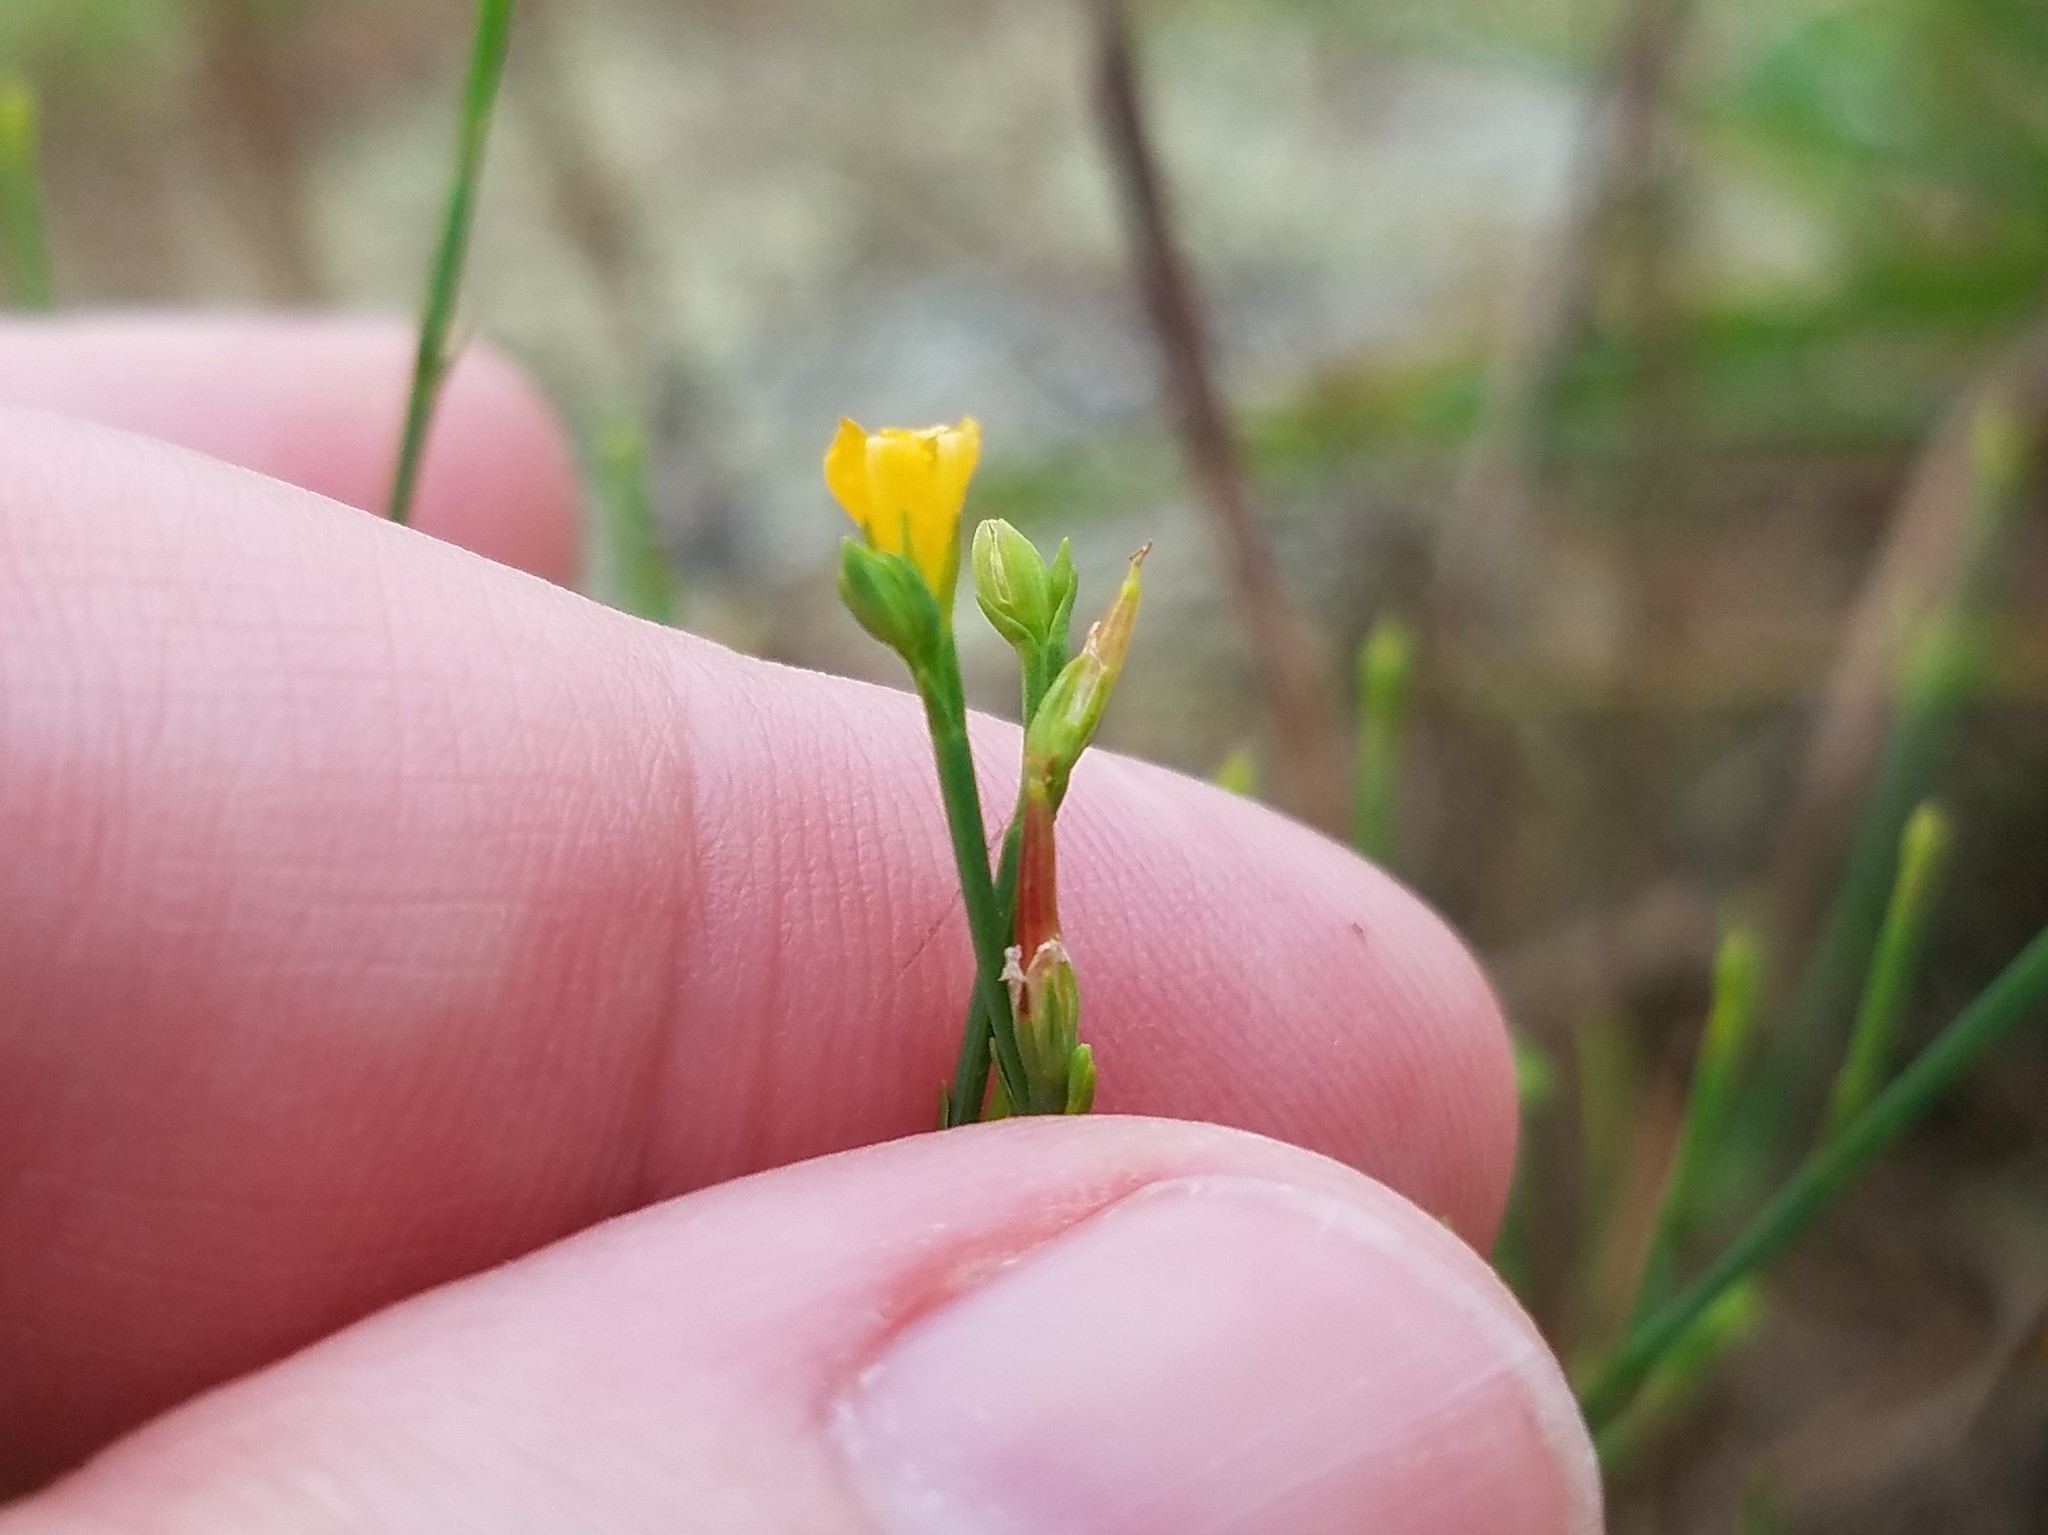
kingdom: Plantae
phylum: Tracheophyta
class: Magnoliopsida
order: Malpighiales
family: Hypericaceae
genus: Hypericum
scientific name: Hypericum gentianoides
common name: Gentian-leaved st. john's-wort
